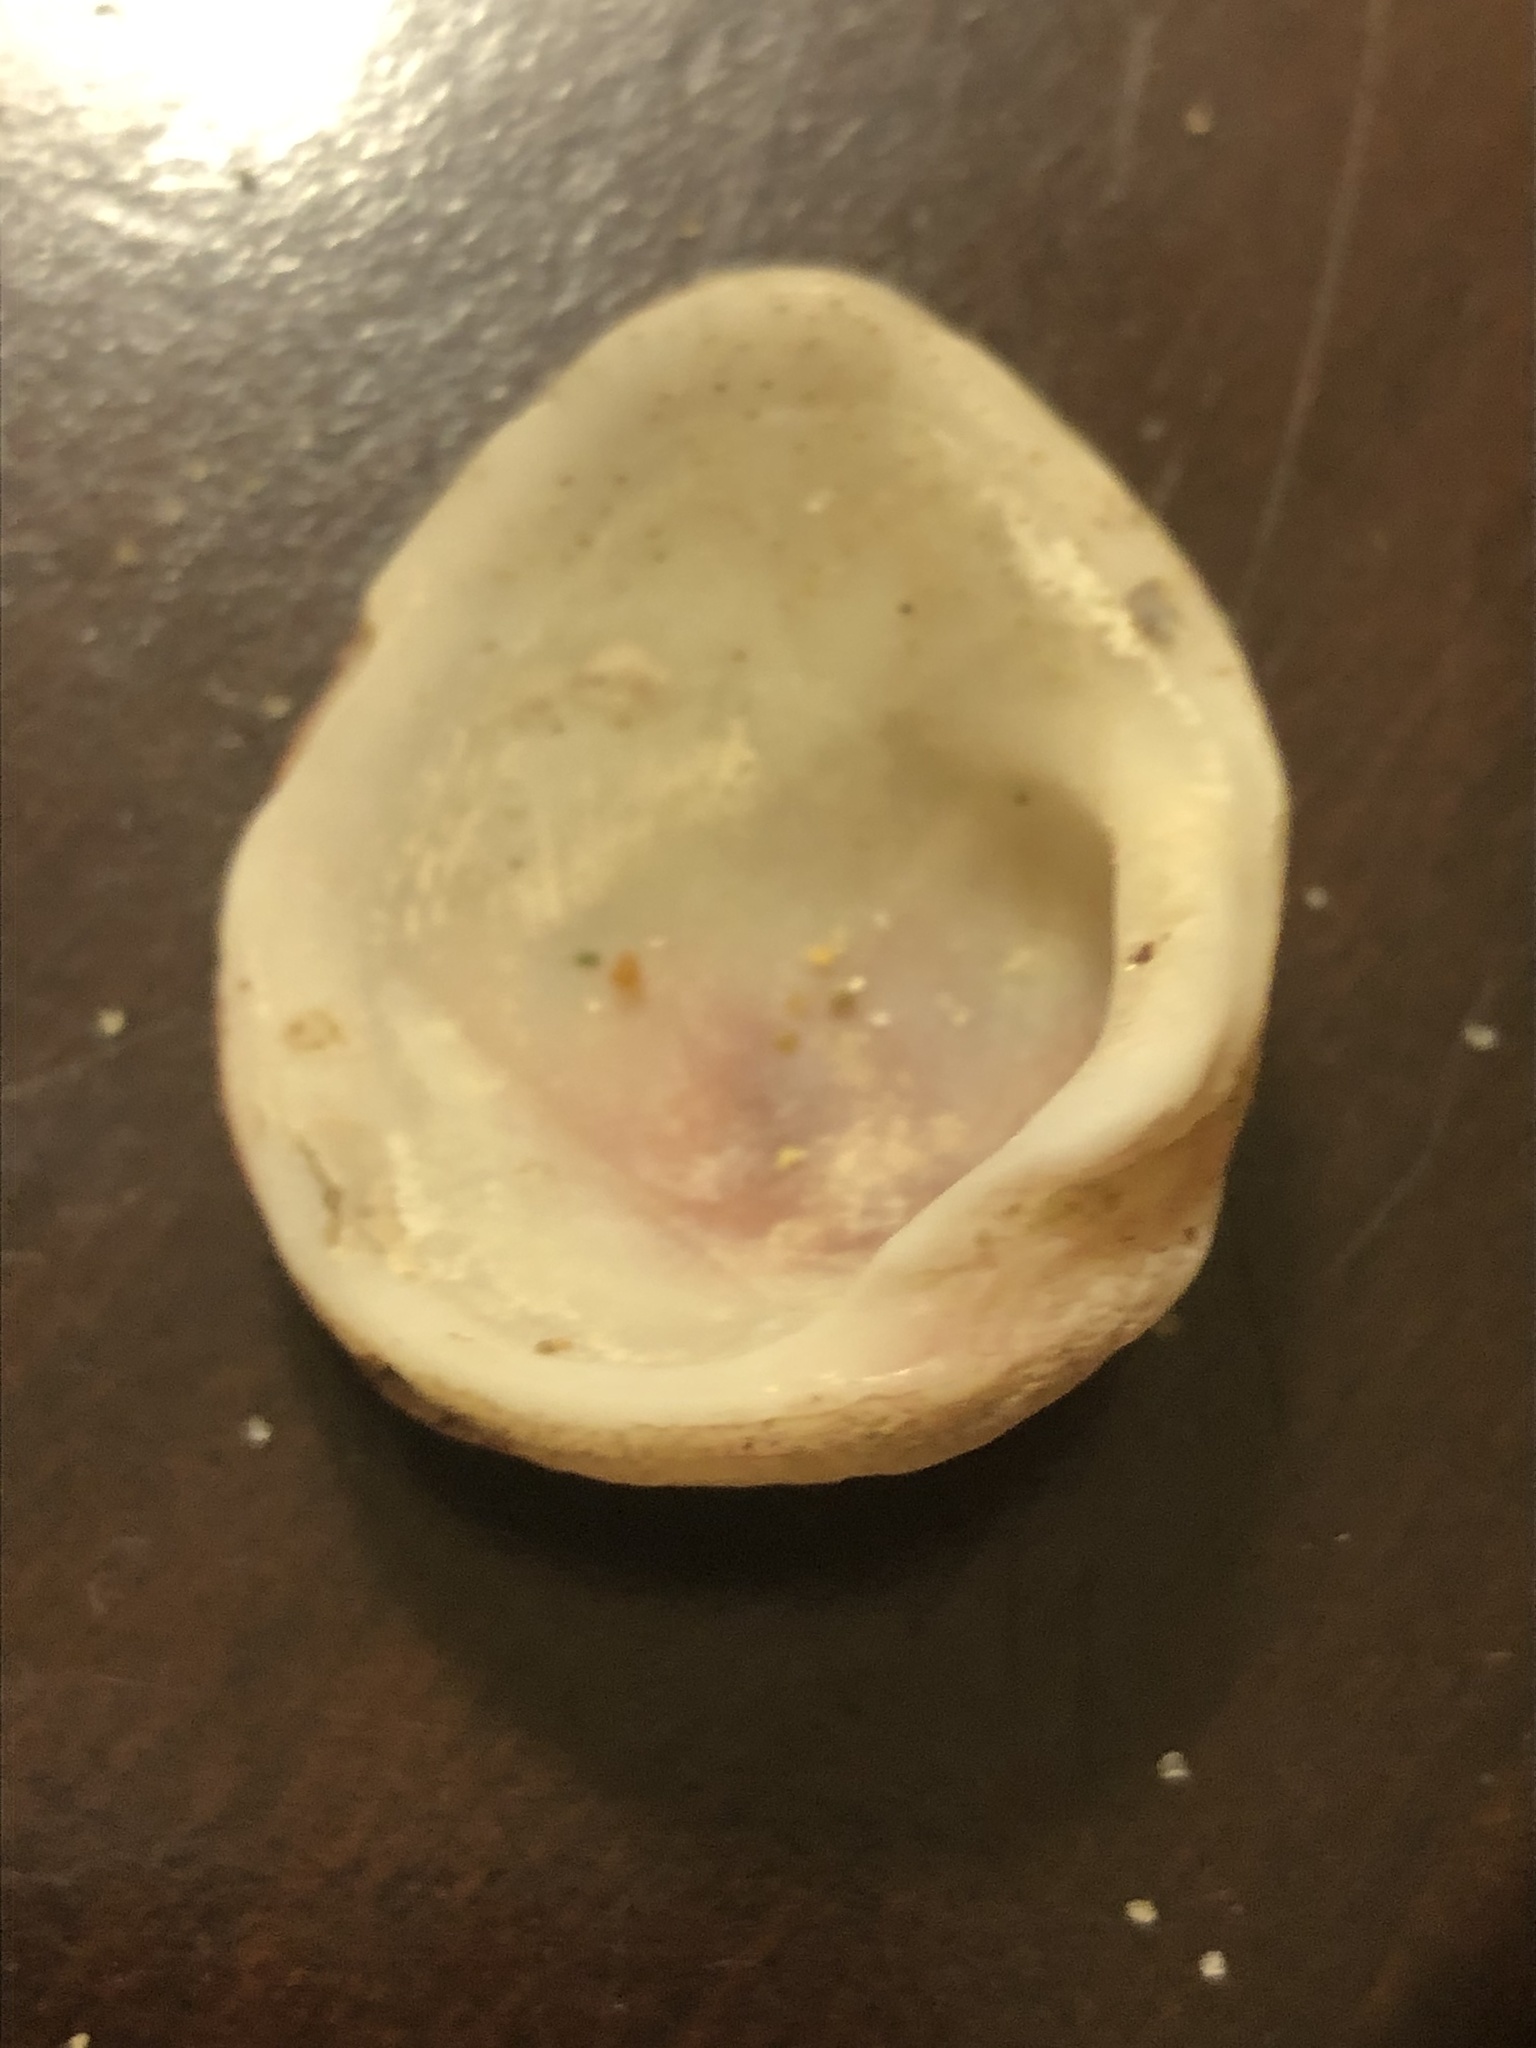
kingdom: Animalia
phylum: Mollusca
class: Bivalvia
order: Venerida
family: Chamidae
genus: Chama
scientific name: Chama arcana
